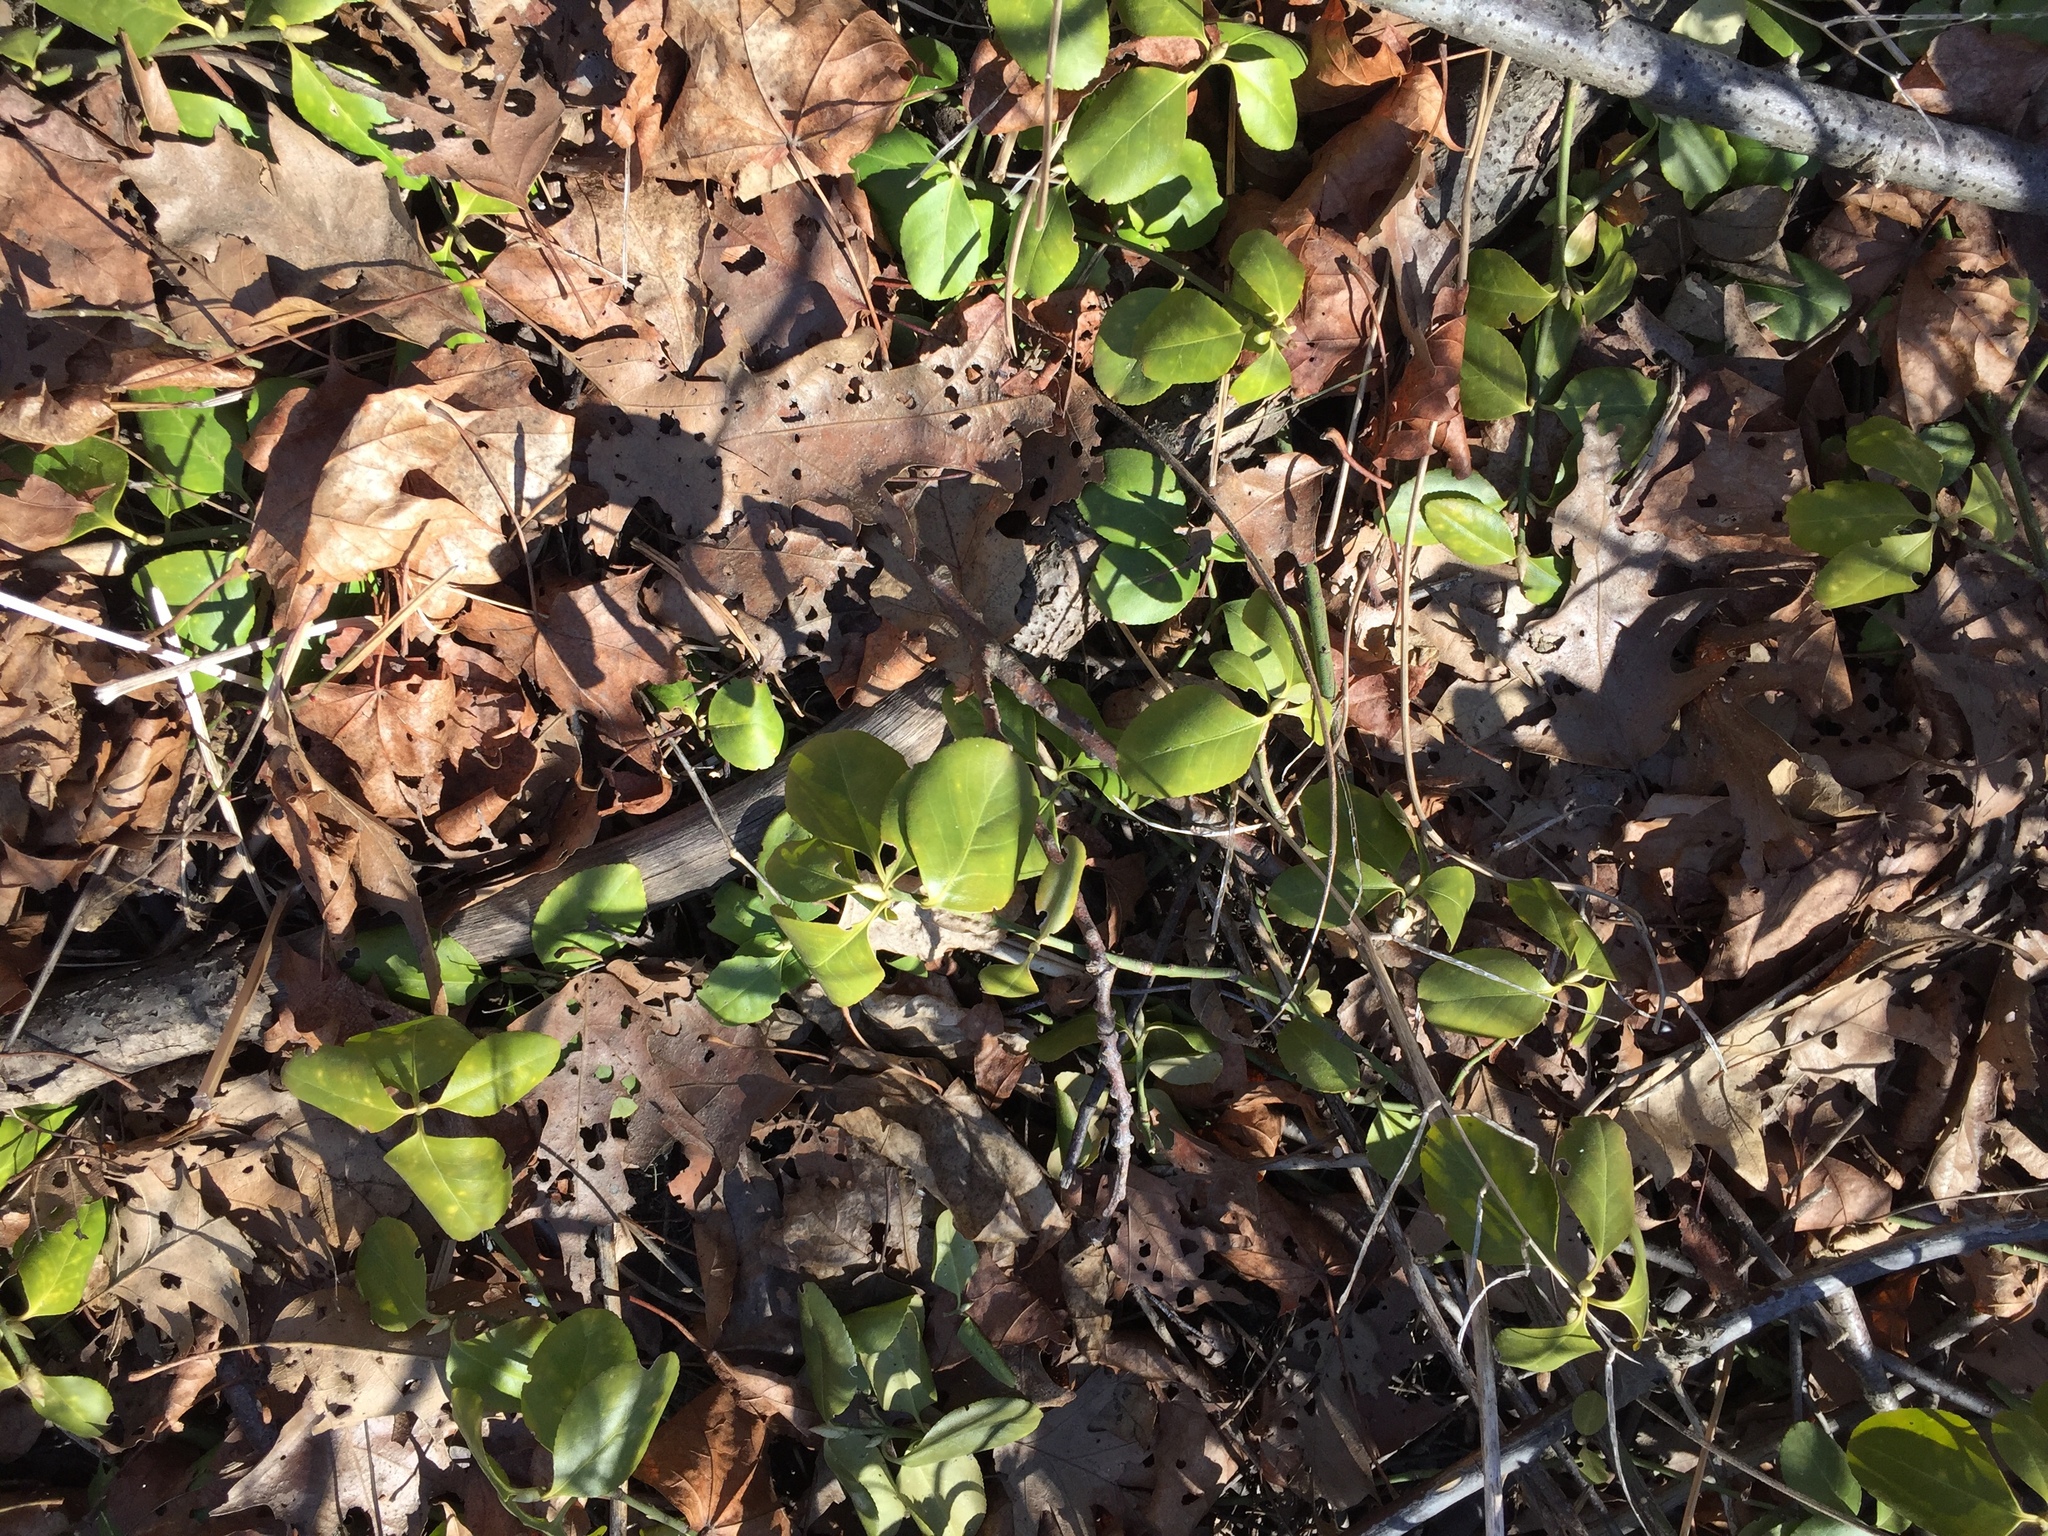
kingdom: Plantae
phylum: Tracheophyta
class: Magnoliopsida
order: Celastrales
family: Celastraceae
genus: Euonymus
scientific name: Euonymus fortunei
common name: Climbing euonymus
